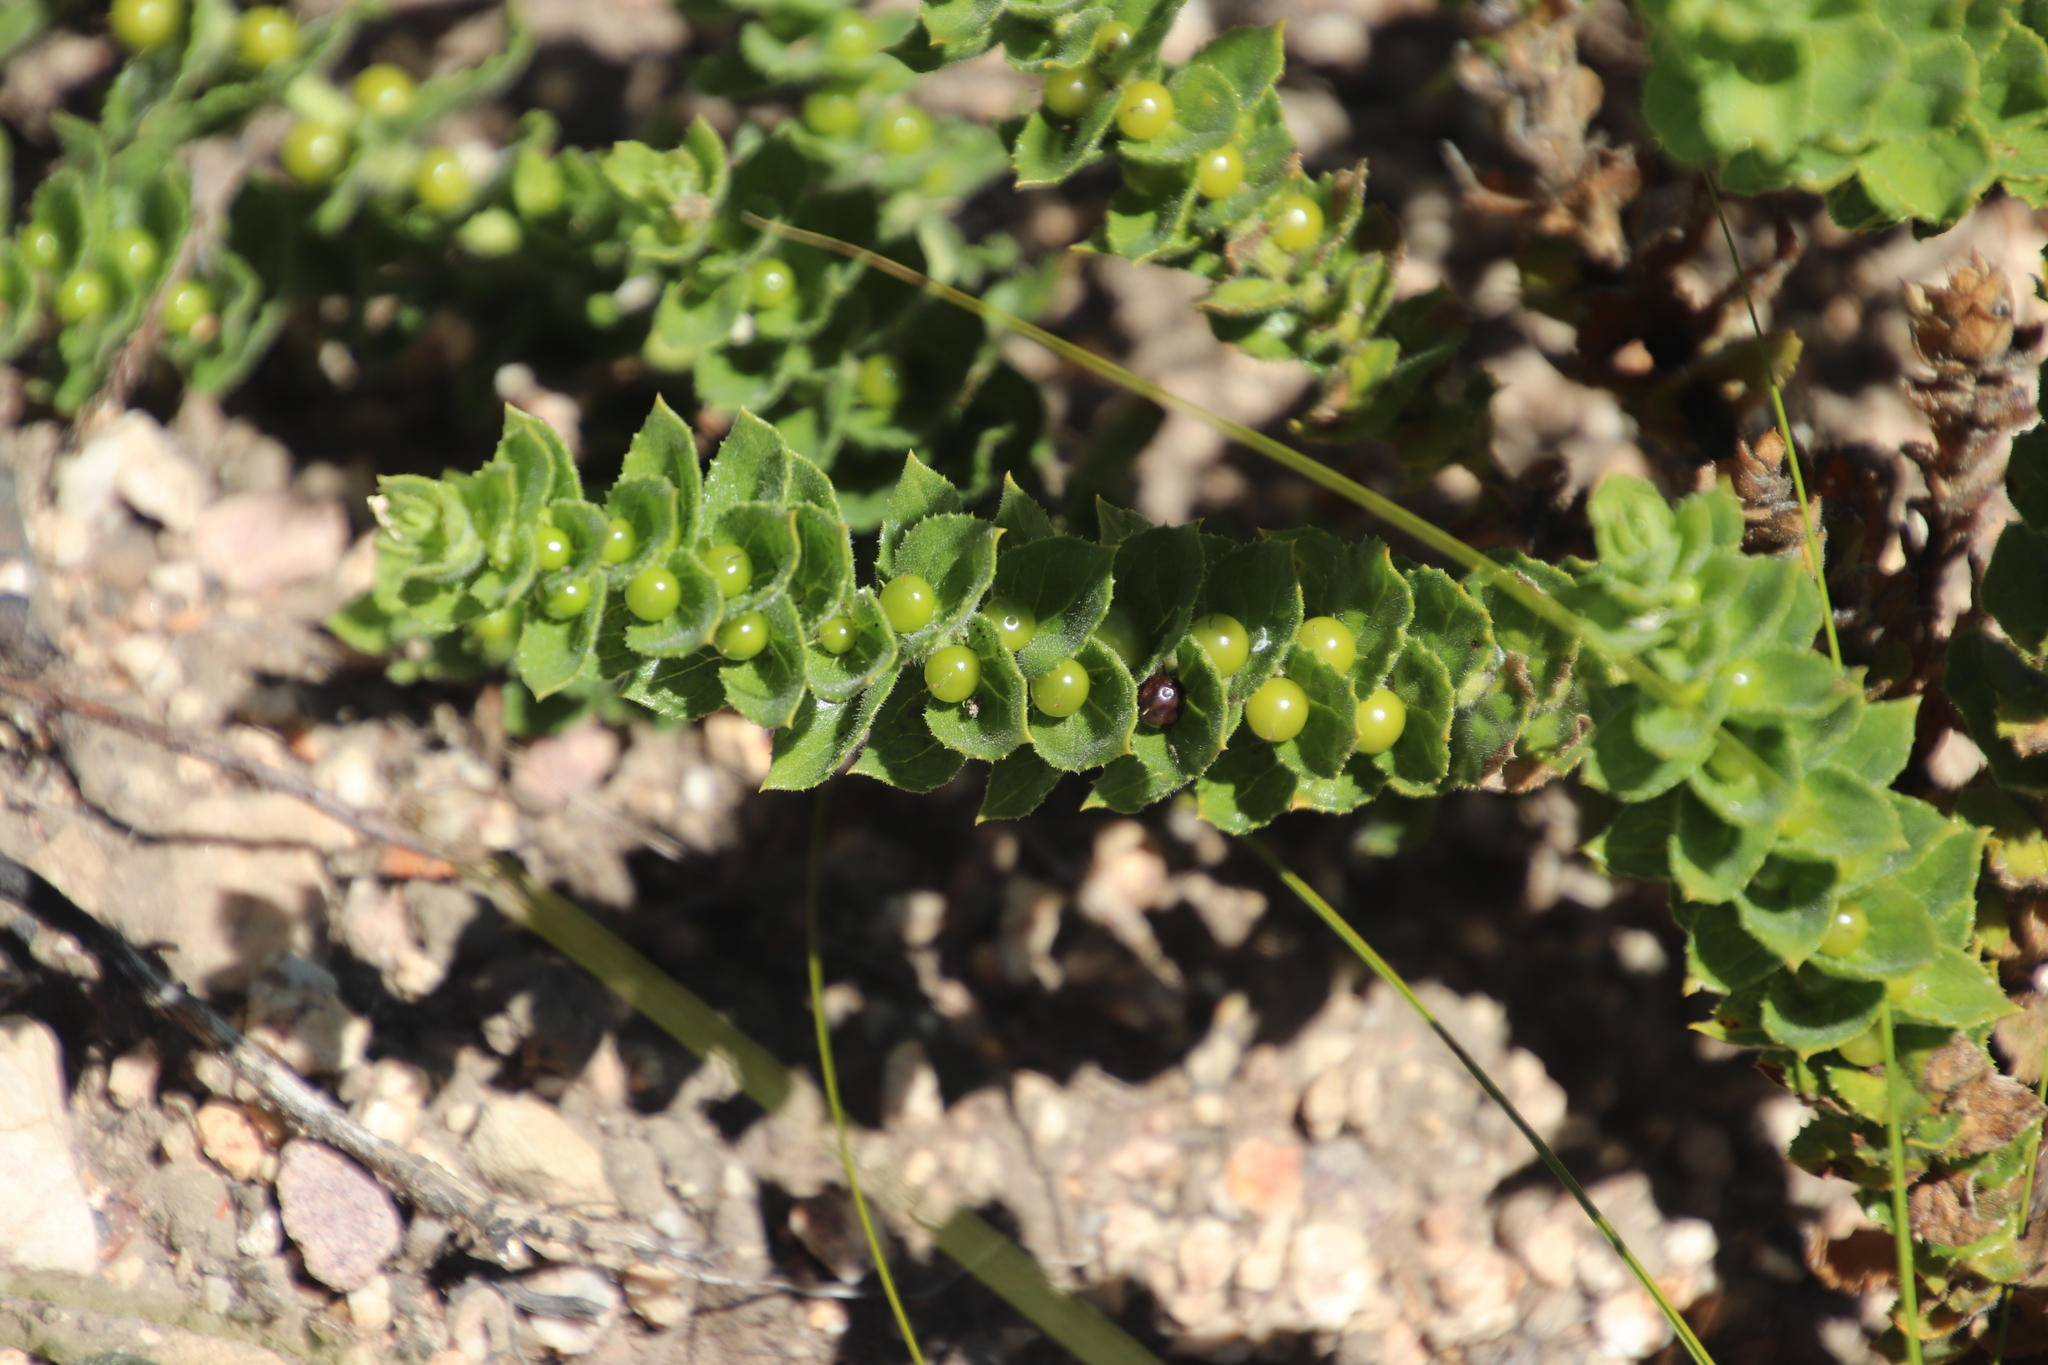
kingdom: Plantae
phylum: Tracheophyta
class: Magnoliopsida
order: Lamiales
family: Scrophulariaceae
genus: Oftia
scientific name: Oftia africana
